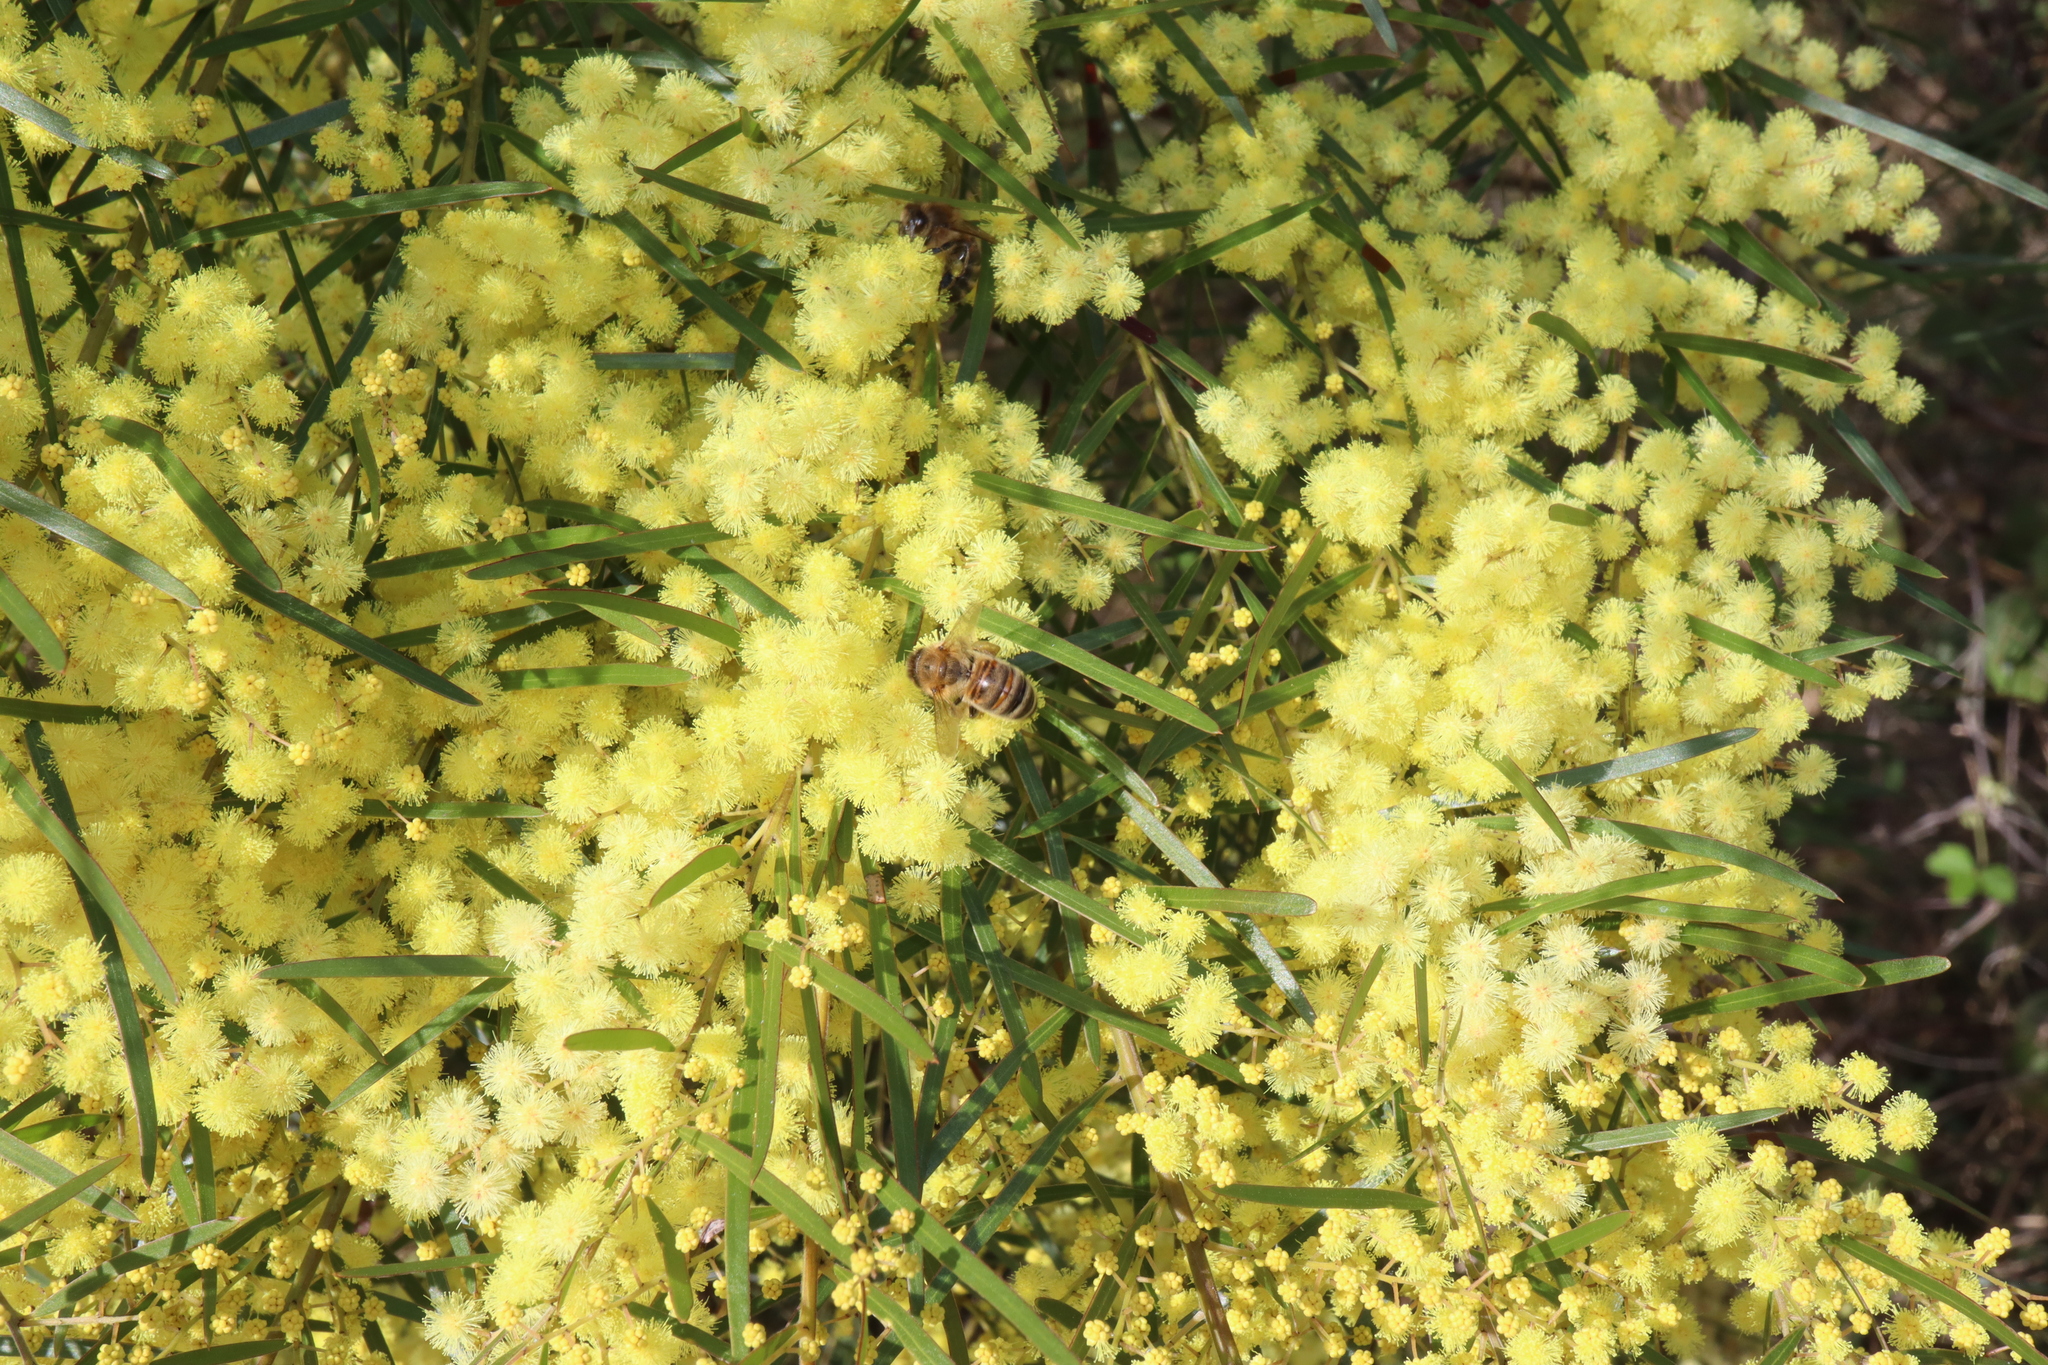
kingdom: Animalia
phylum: Arthropoda
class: Insecta
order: Hymenoptera
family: Apidae
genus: Apis
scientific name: Apis mellifera
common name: Honey bee
